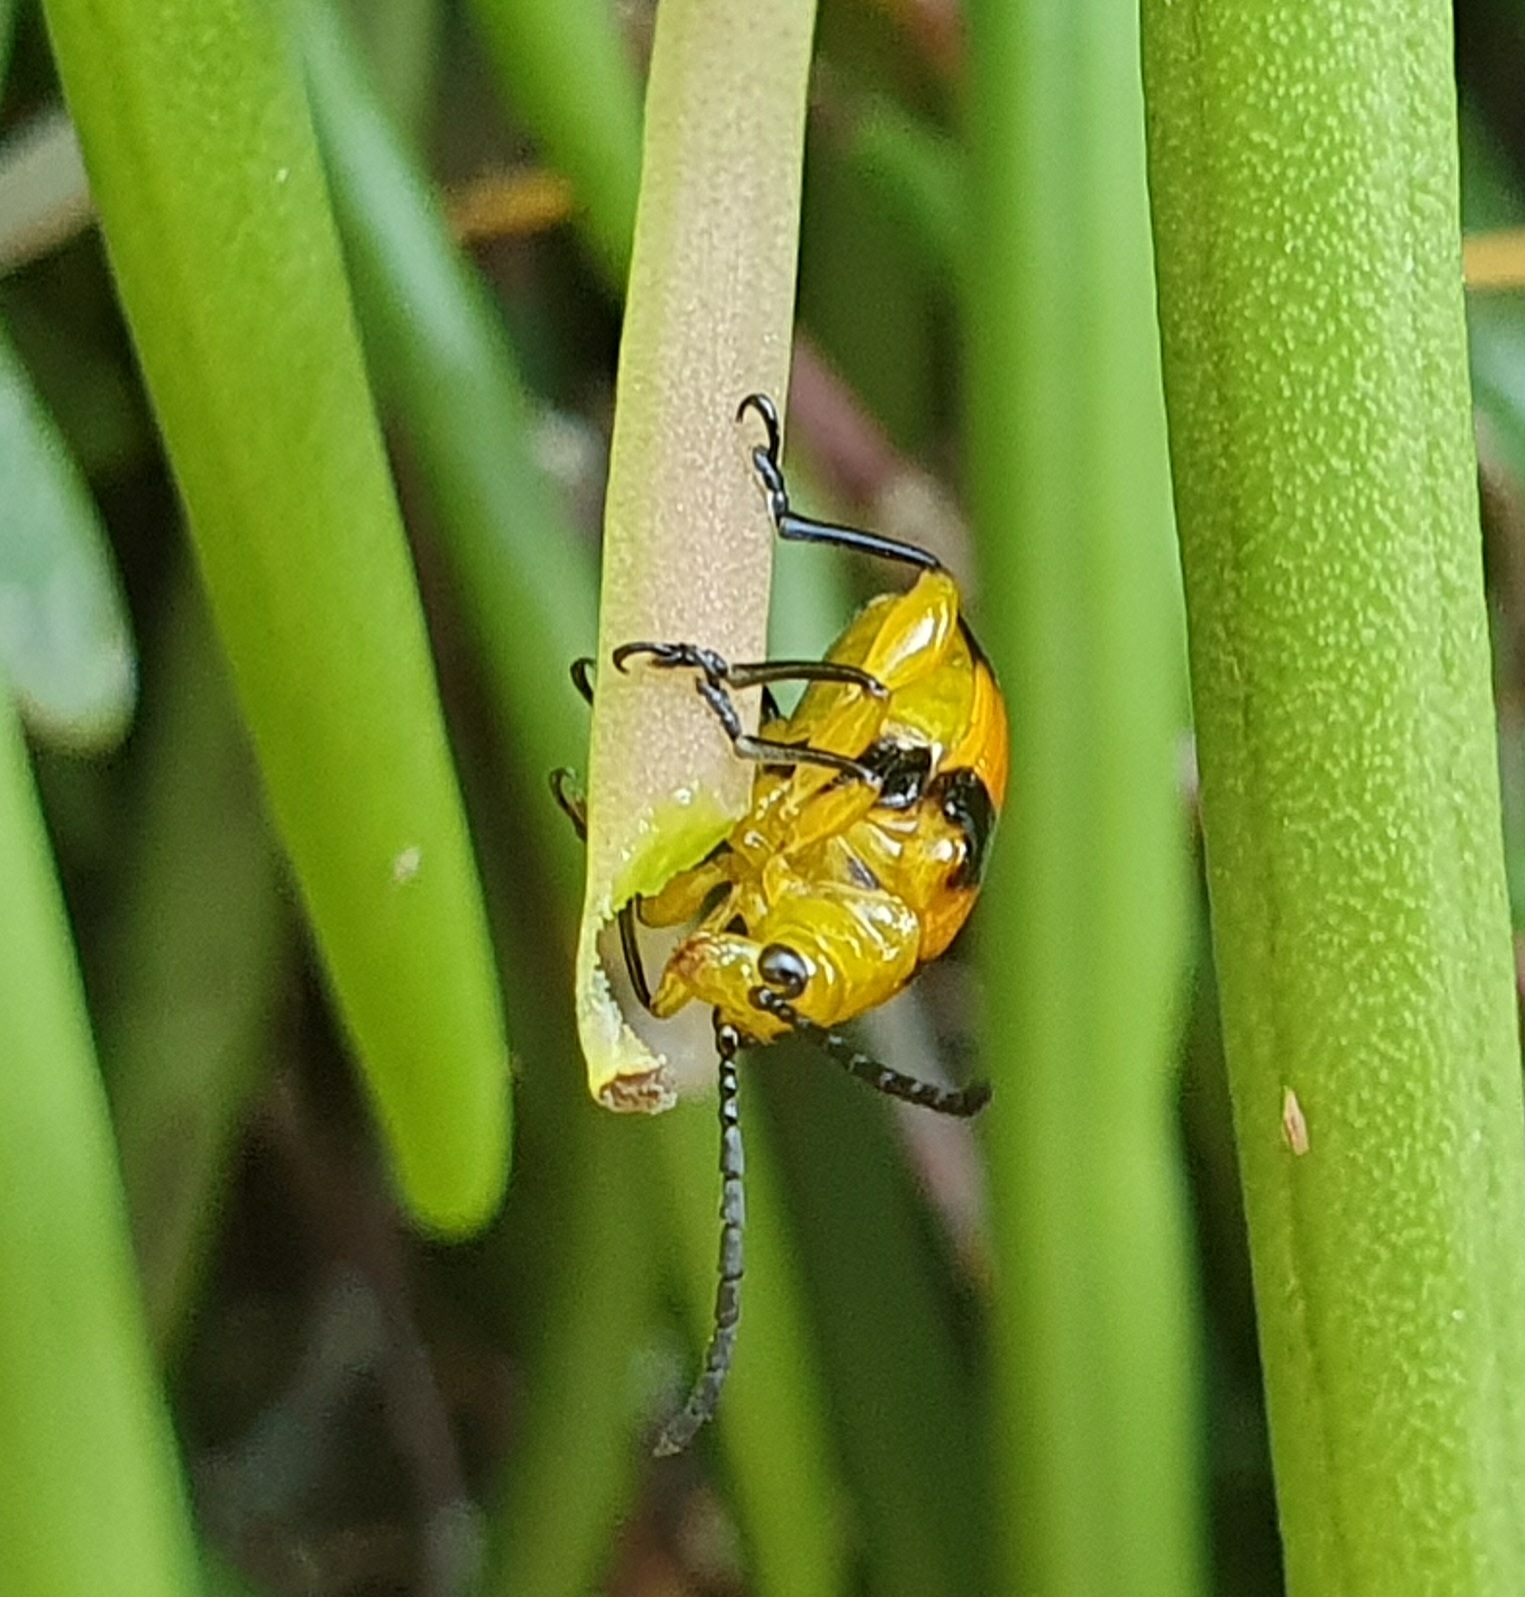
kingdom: Animalia
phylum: Arthropoda
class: Insecta
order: Coleoptera
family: Chrysomelidae
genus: Stethopachys
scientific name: Stethopachys formosa
